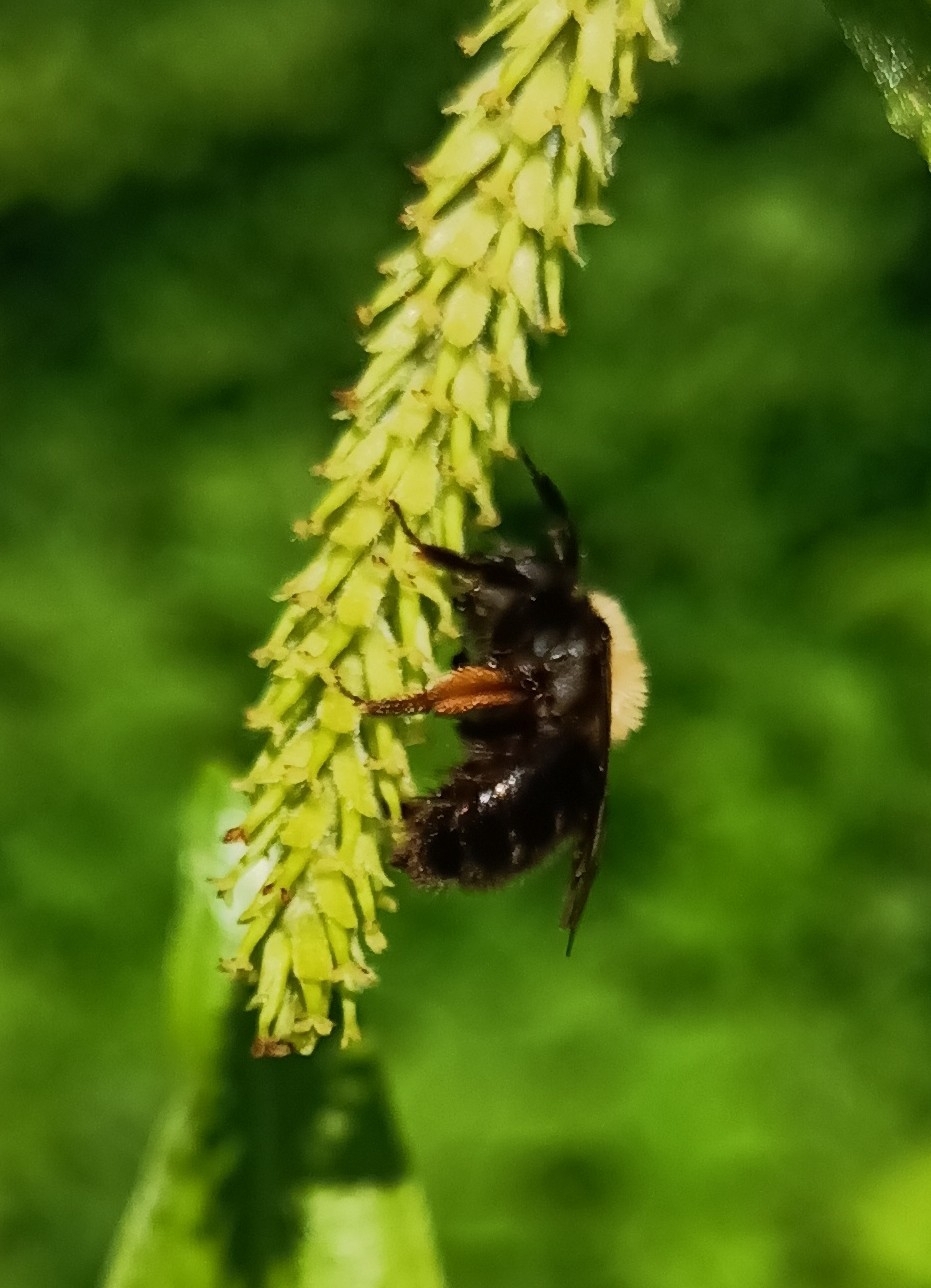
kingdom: Animalia
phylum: Arthropoda
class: Insecta
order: Hymenoptera
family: Andrenidae
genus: Andrena
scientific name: Andrena clarkella
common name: Clarke's mining bee
